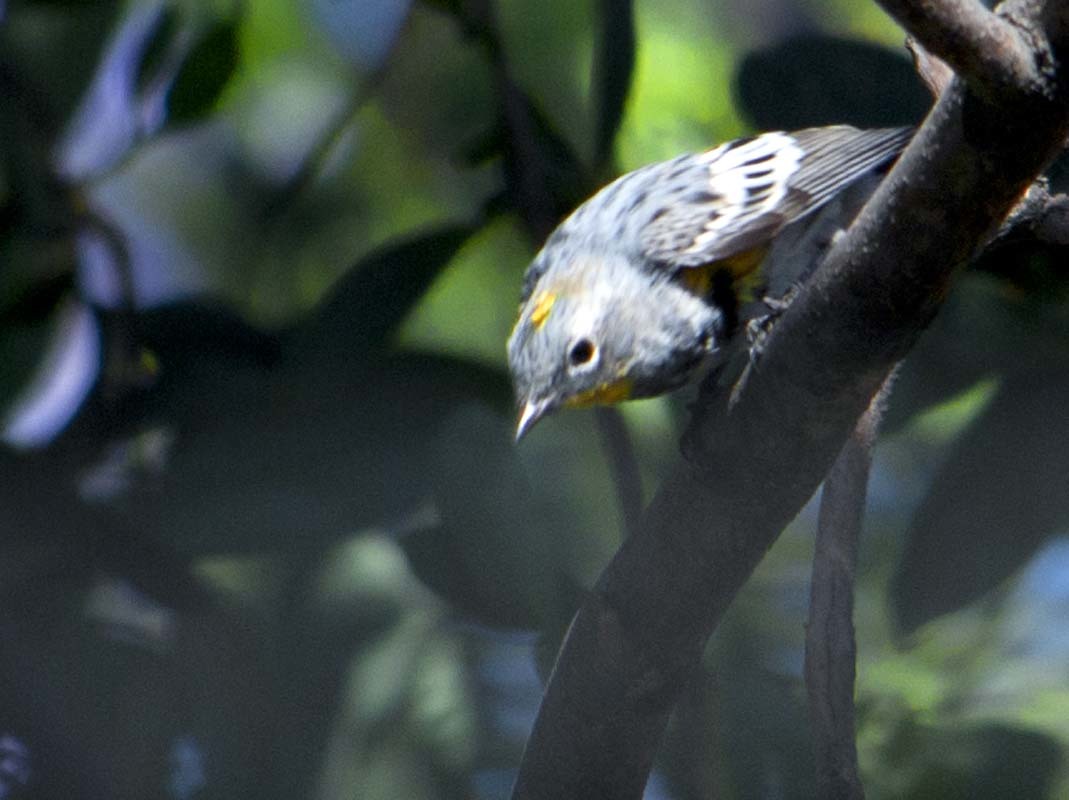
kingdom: Animalia
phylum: Chordata
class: Aves
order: Passeriformes
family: Parulidae
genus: Setophaga
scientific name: Setophaga auduboni
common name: Audubon's warbler
